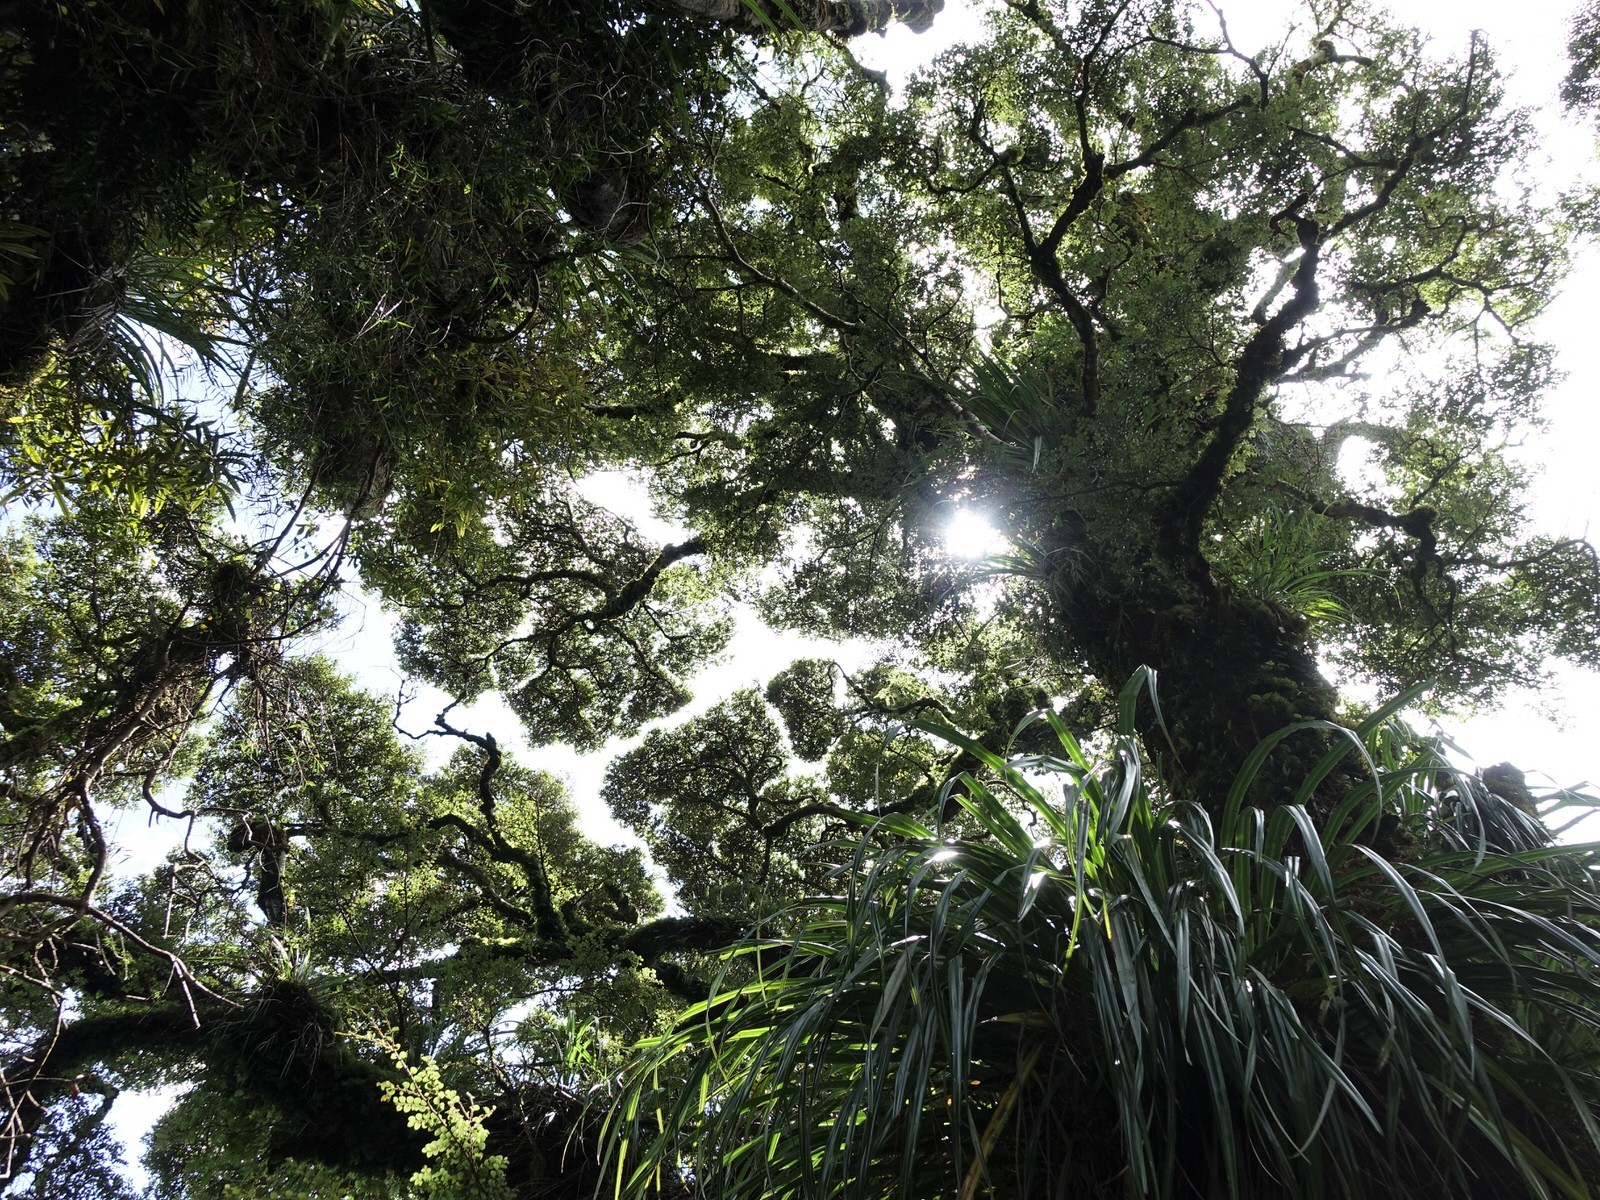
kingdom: Plantae
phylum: Tracheophyta
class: Magnoliopsida
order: Fagales
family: Nothofagaceae
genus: Nothofagus
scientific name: Nothofagus menziesii
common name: Silver beech
